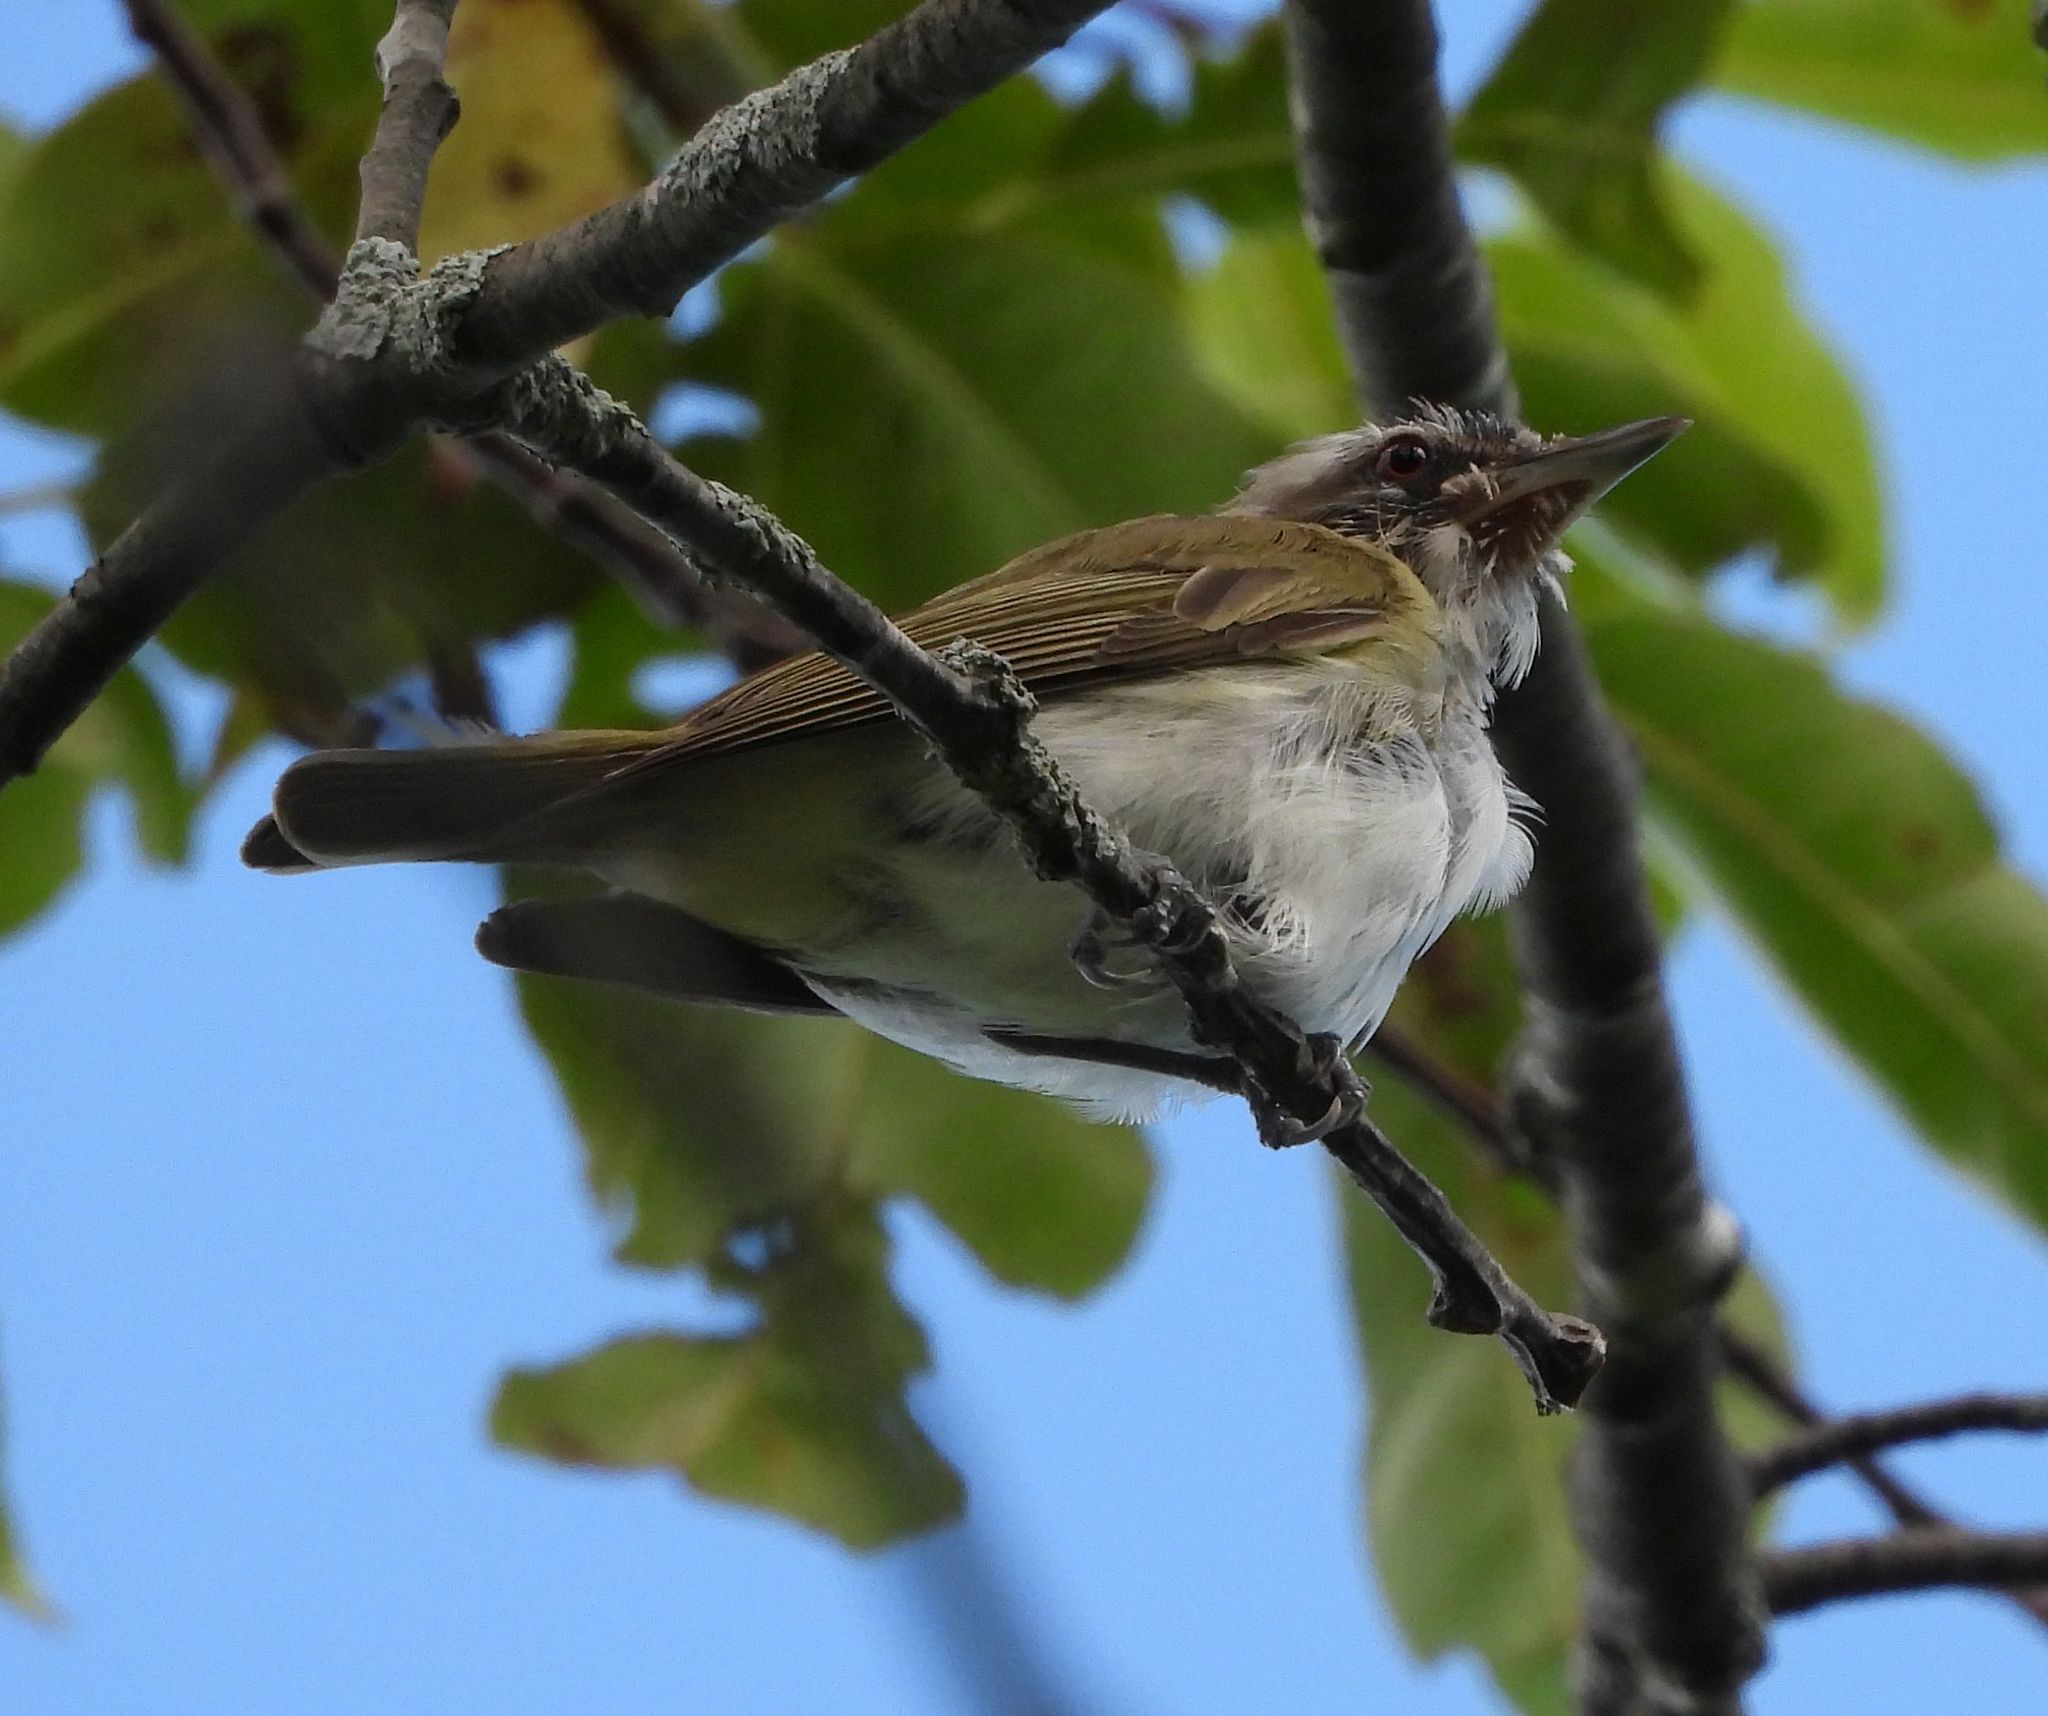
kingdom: Animalia
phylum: Chordata
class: Aves
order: Passeriformes
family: Vireonidae
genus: Vireo
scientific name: Vireo olivaceus
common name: Red-eyed vireo
